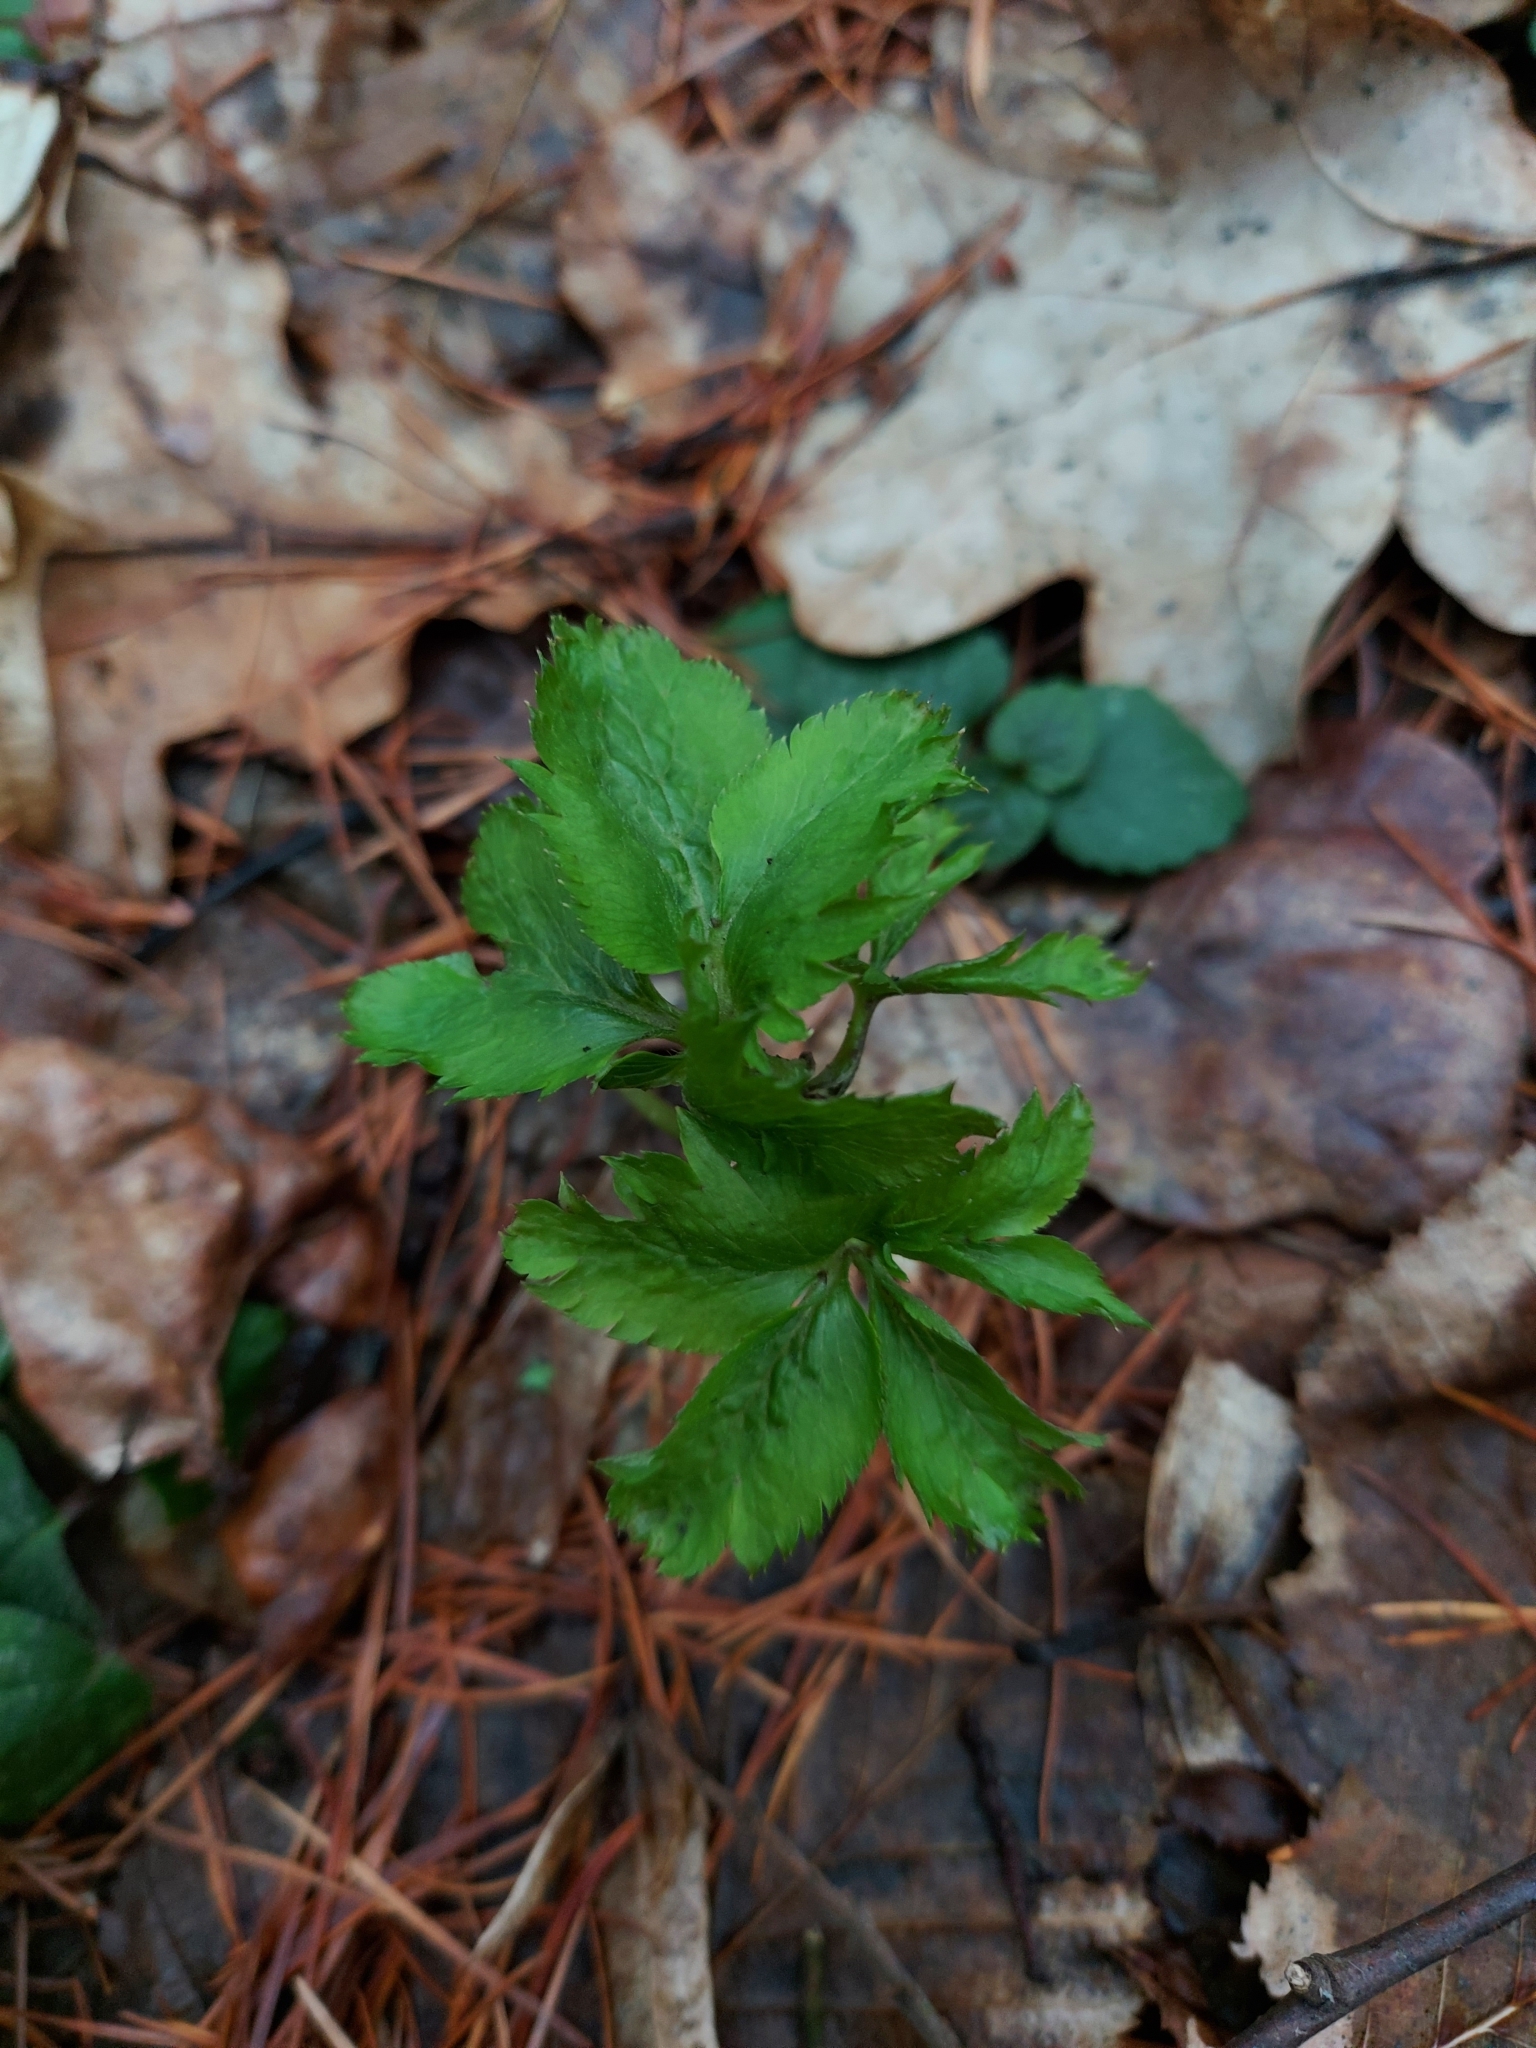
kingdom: Plantae
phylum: Tracheophyta
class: Magnoliopsida
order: Dipsacales
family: Viburnaceae
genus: Sambucus
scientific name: Sambucus nigra
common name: Elder
